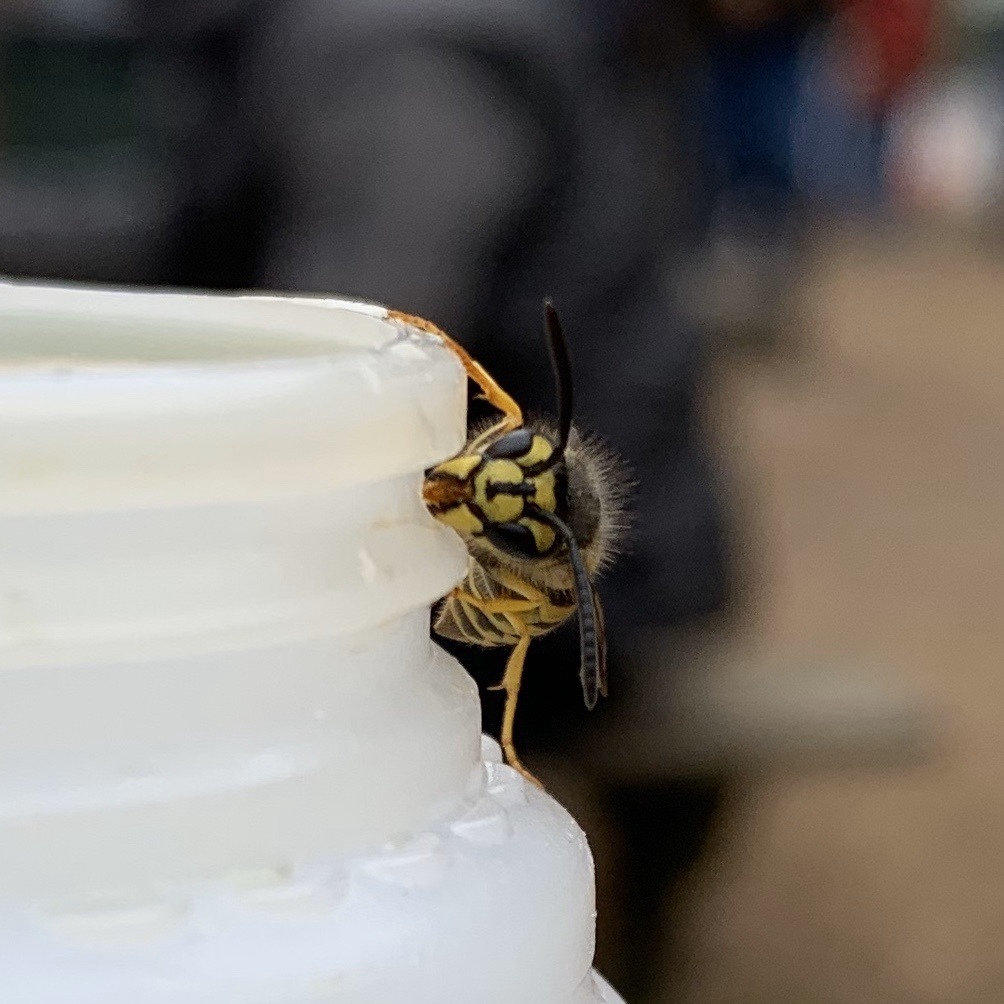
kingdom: Animalia
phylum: Arthropoda
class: Insecta
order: Hymenoptera
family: Vespidae
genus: Vespula
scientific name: Vespula maculifrons
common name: Eastern yellowjacket
